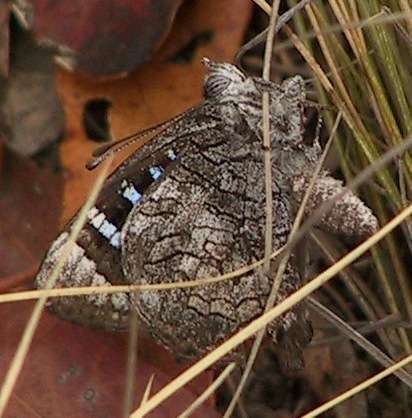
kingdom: Animalia
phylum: Arthropoda
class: Insecta
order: Lepidoptera
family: Lycaenidae
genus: Ogyris
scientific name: Ogyris olane
